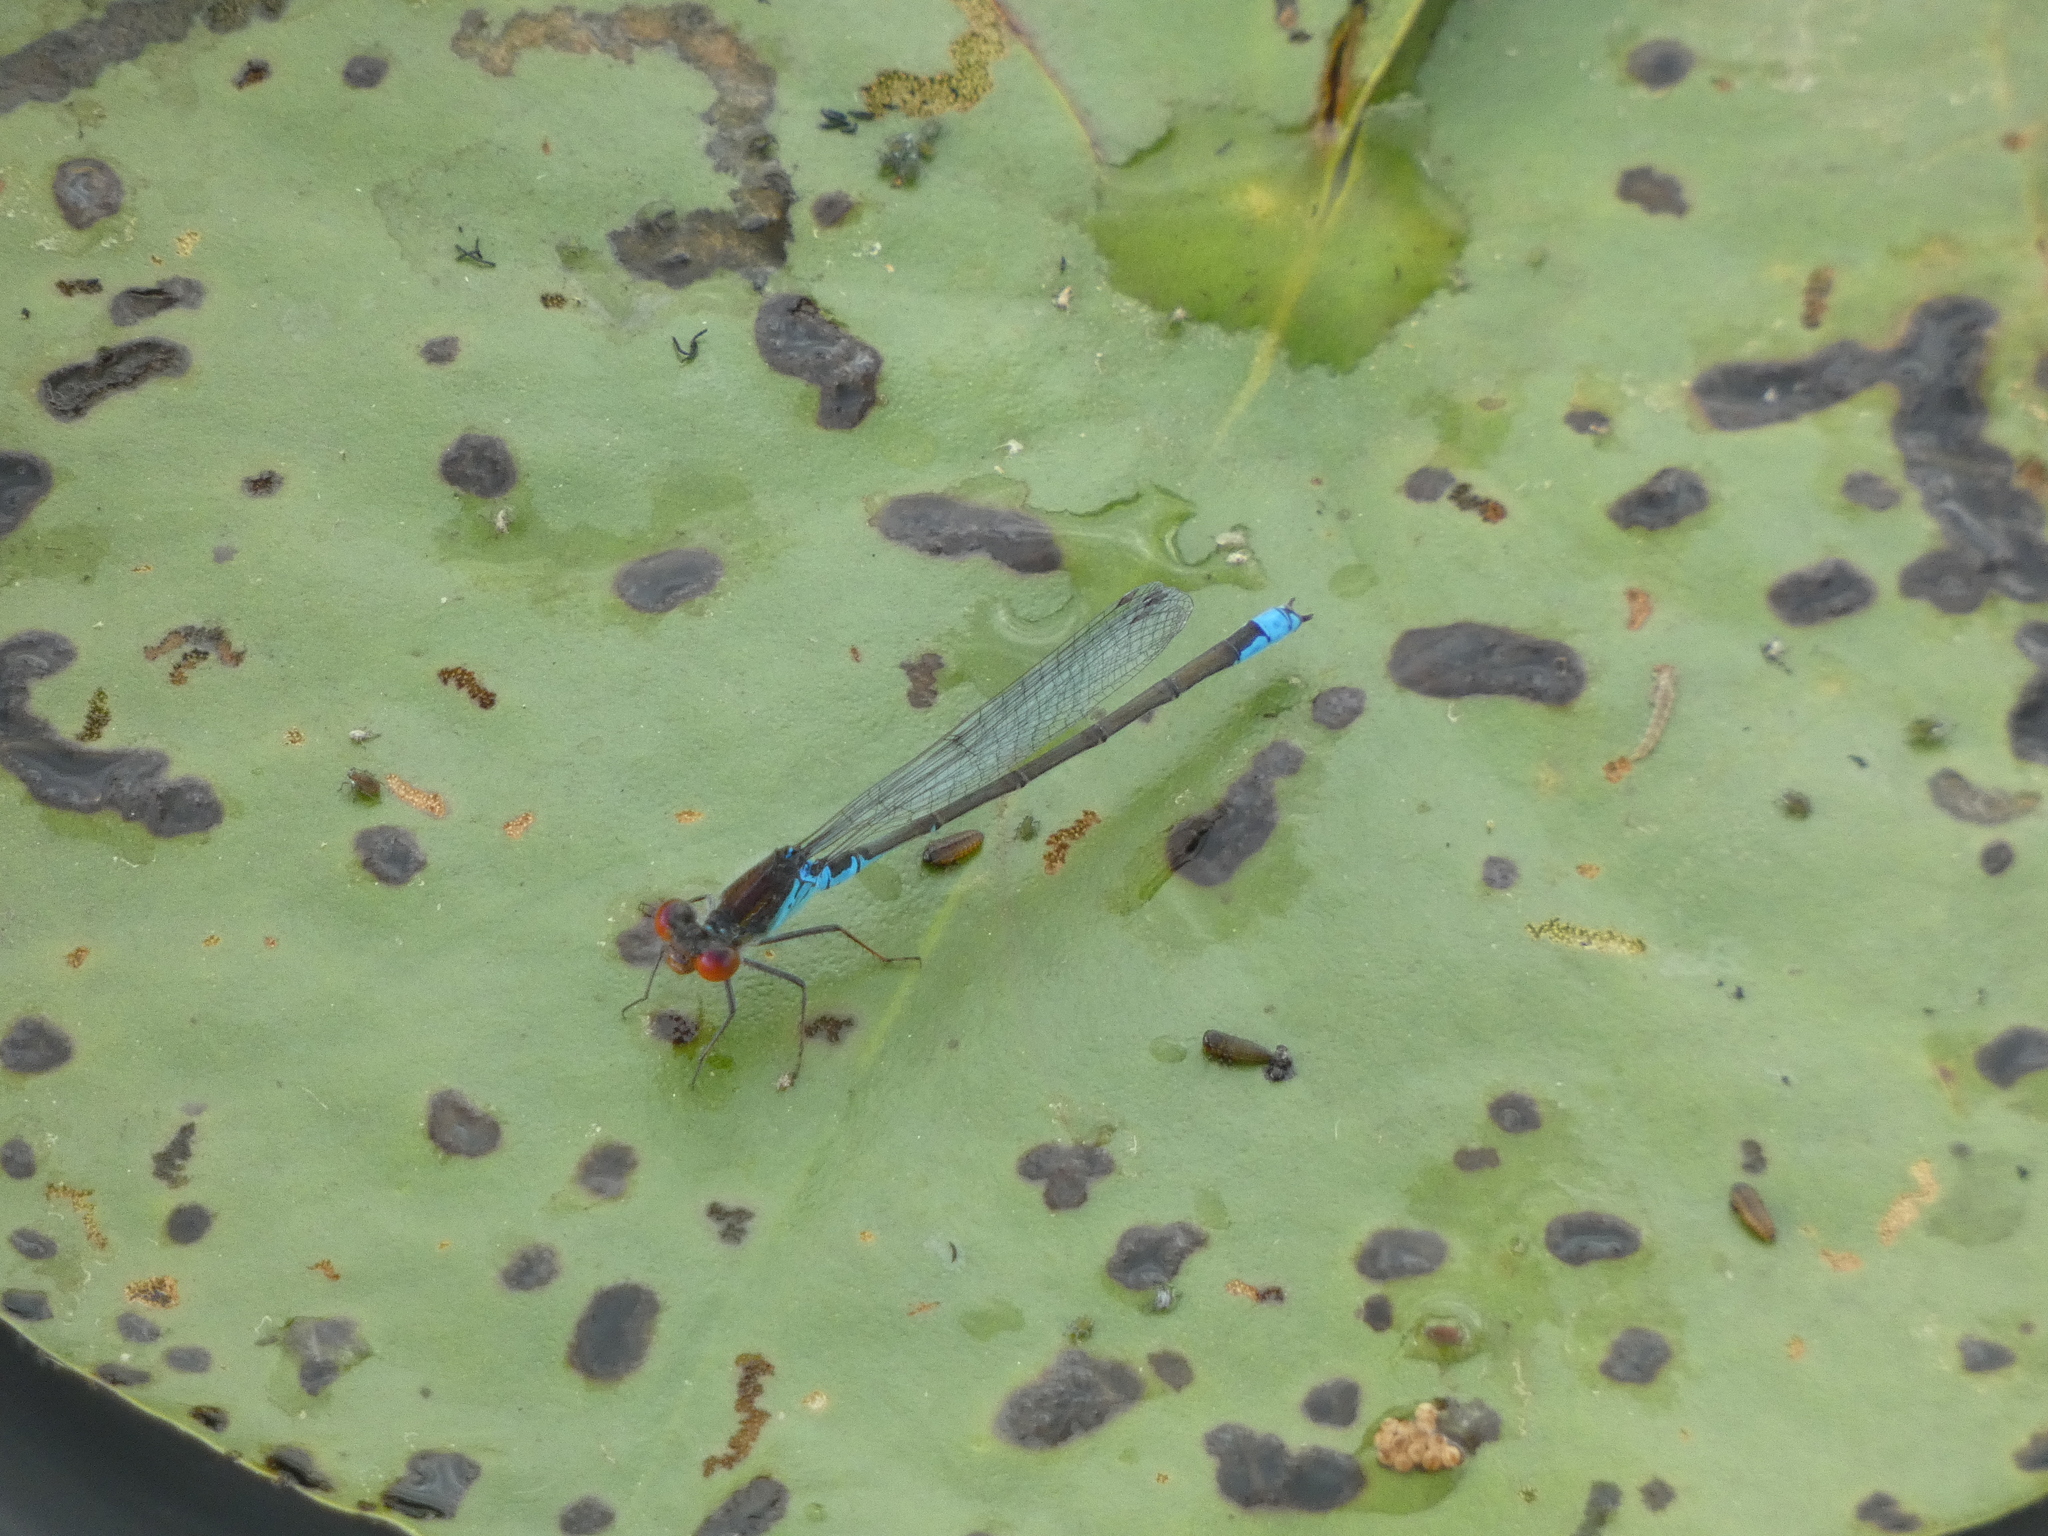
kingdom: Animalia
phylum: Arthropoda
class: Insecta
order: Odonata
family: Coenagrionidae
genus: Erythromma
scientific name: Erythromma viridulum
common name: Small red-eyed damselfly
